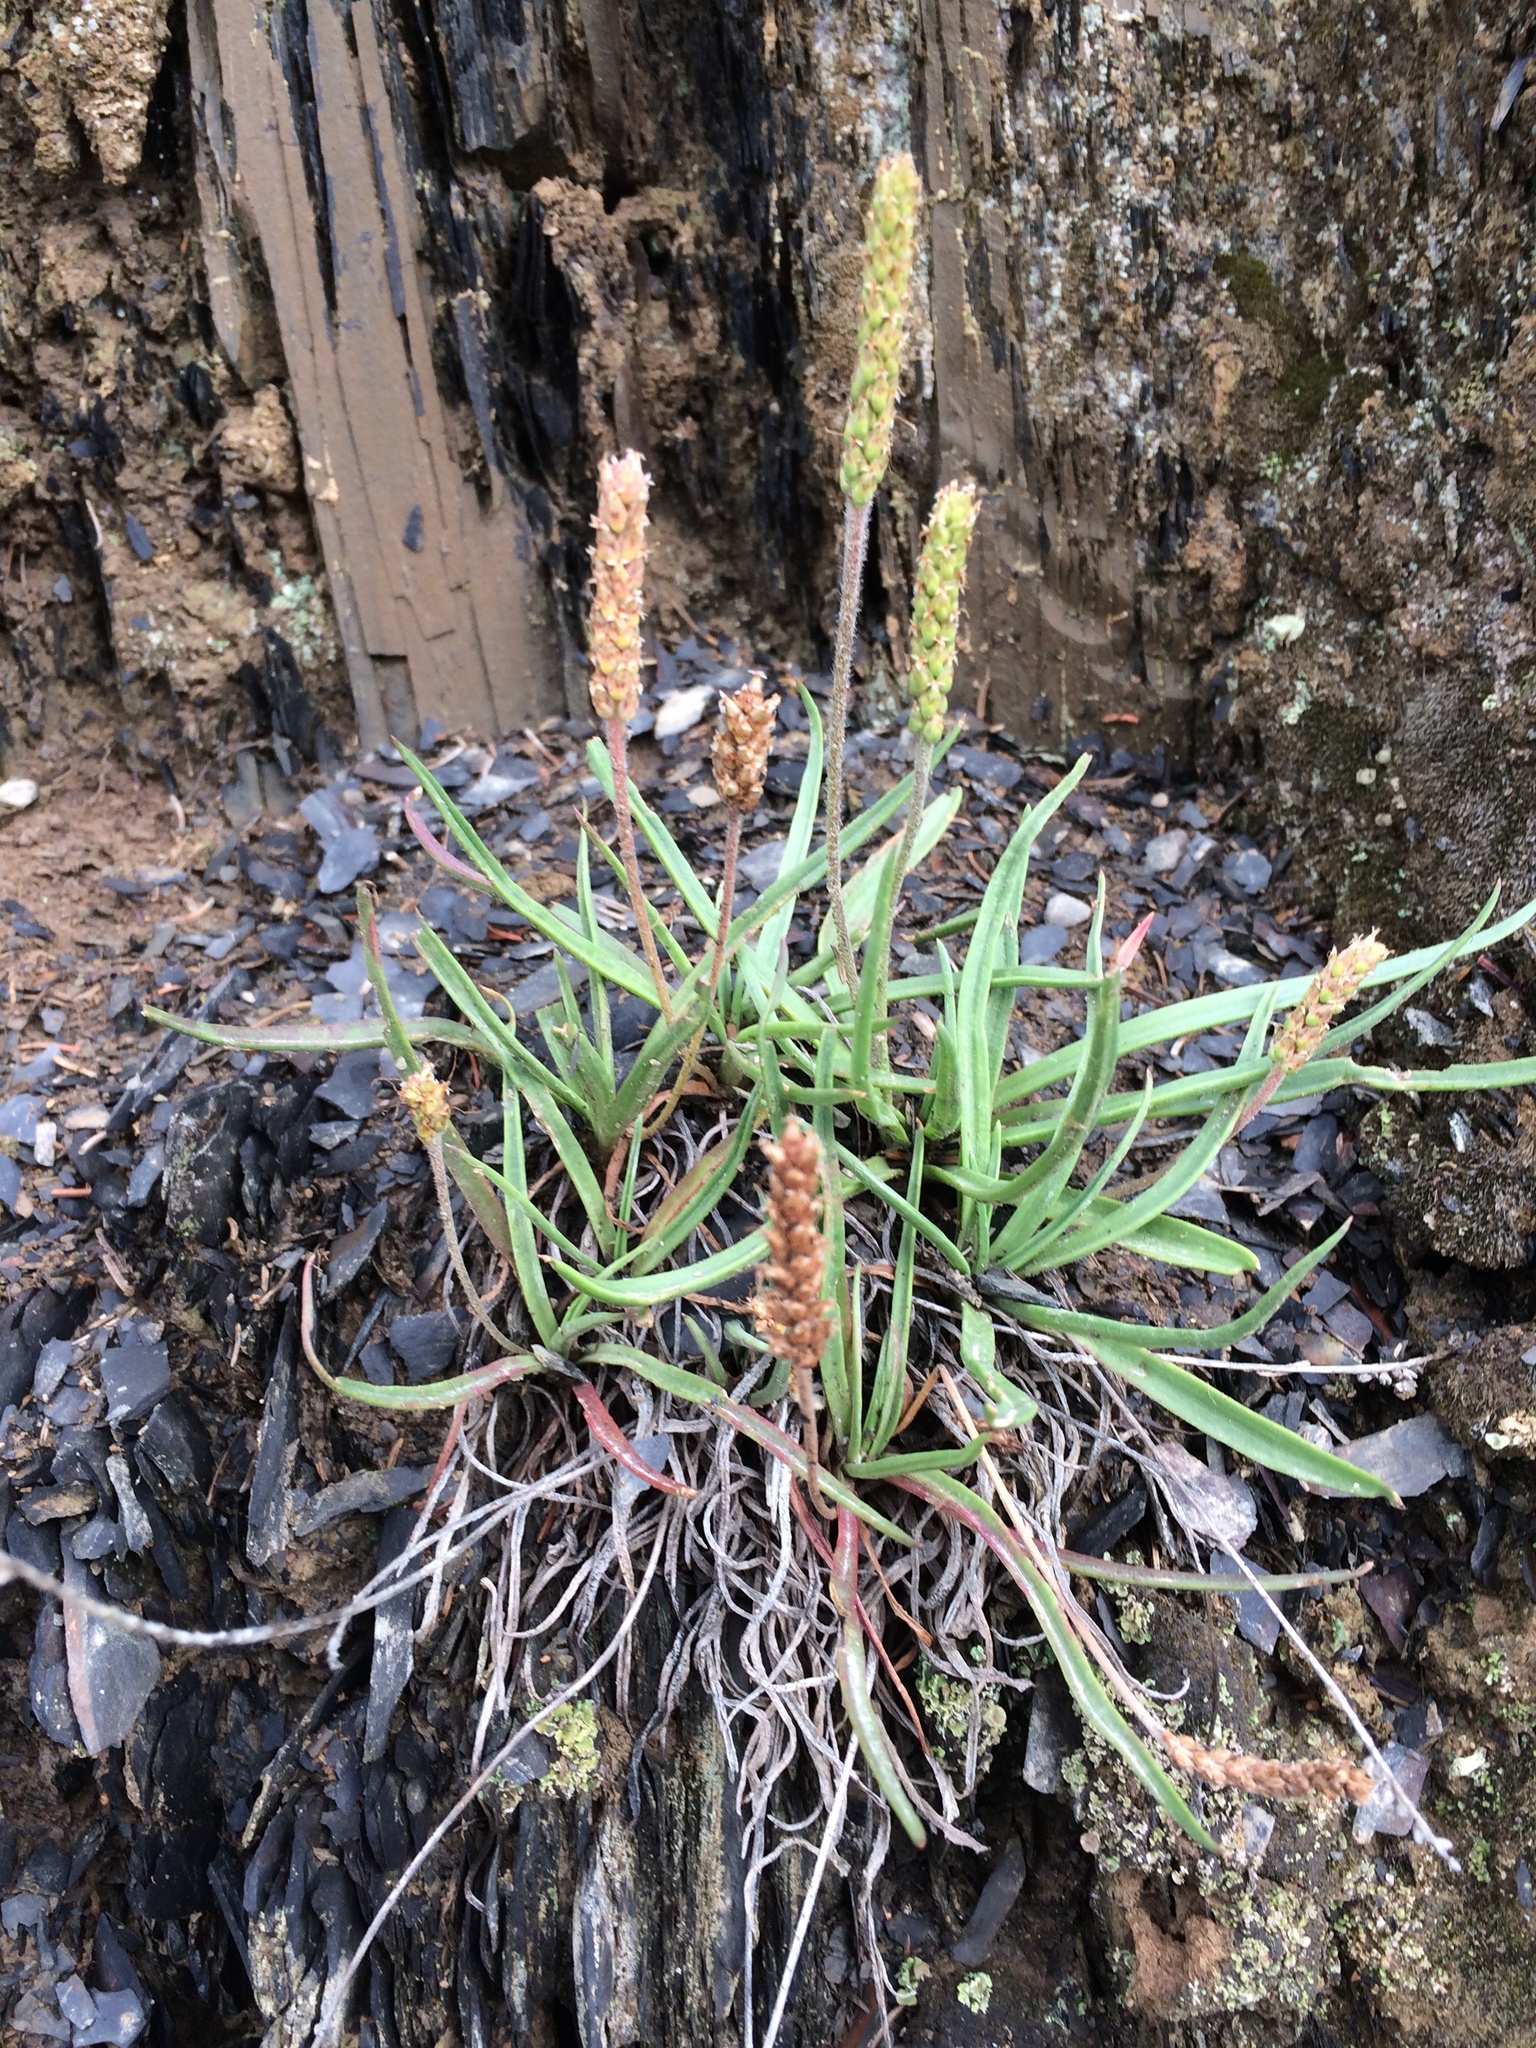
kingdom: Plantae
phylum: Tracheophyta
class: Magnoliopsida
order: Lamiales
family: Plantaginaceae
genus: Plantago
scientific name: Plantago maritima
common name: Sea plantain
